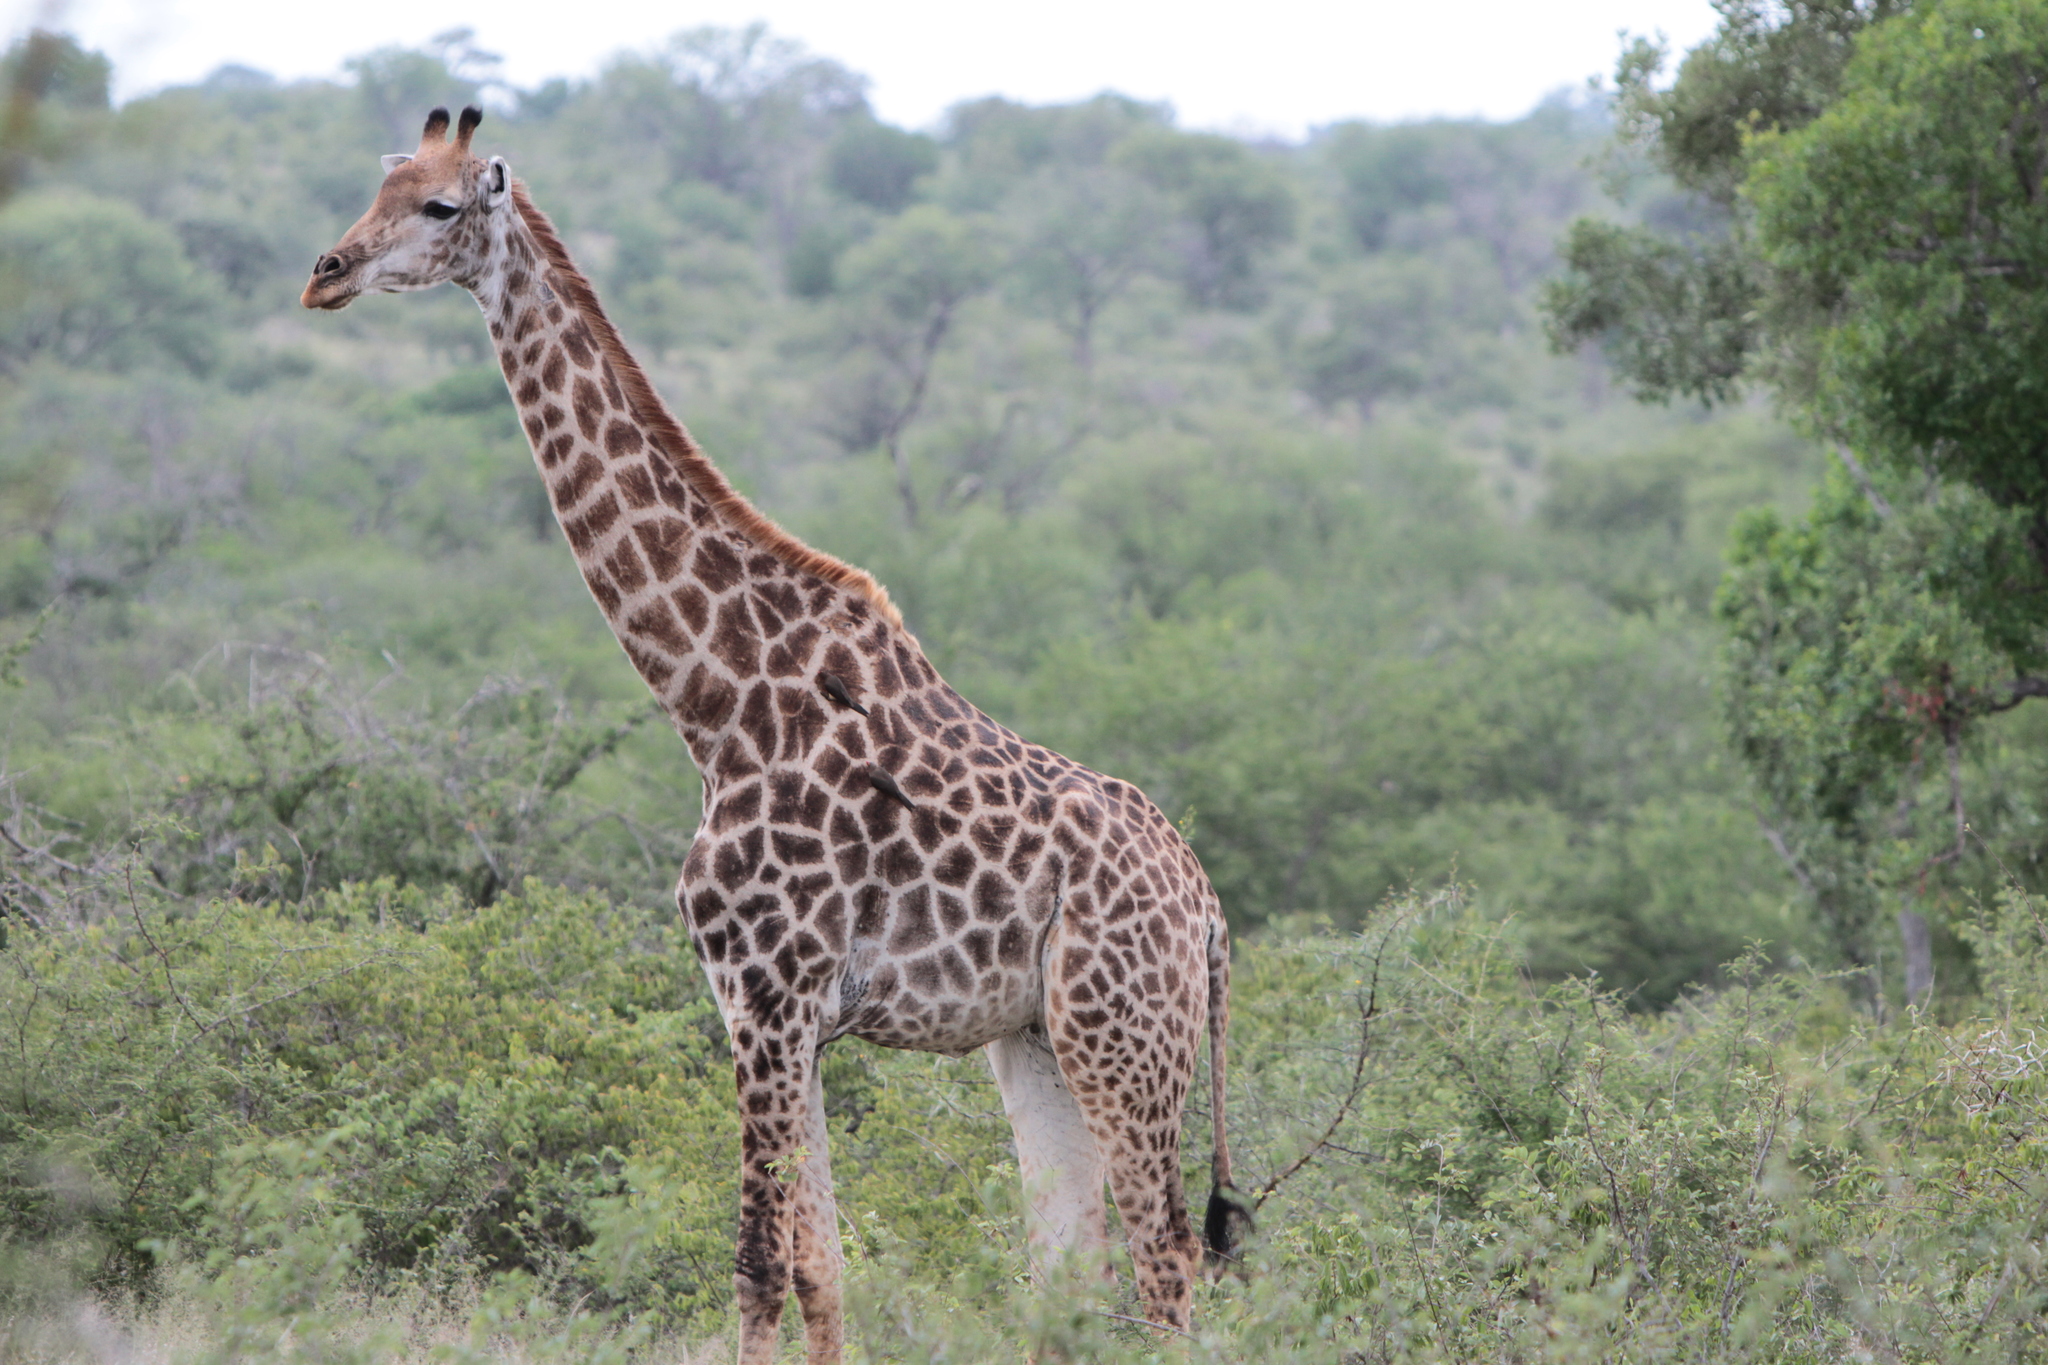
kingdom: Animalia
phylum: Chordata
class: Mammalia
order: Artiodactyla
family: Giraffidae
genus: Giraffa
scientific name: Giraffa giraffa
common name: Southern giraffe
